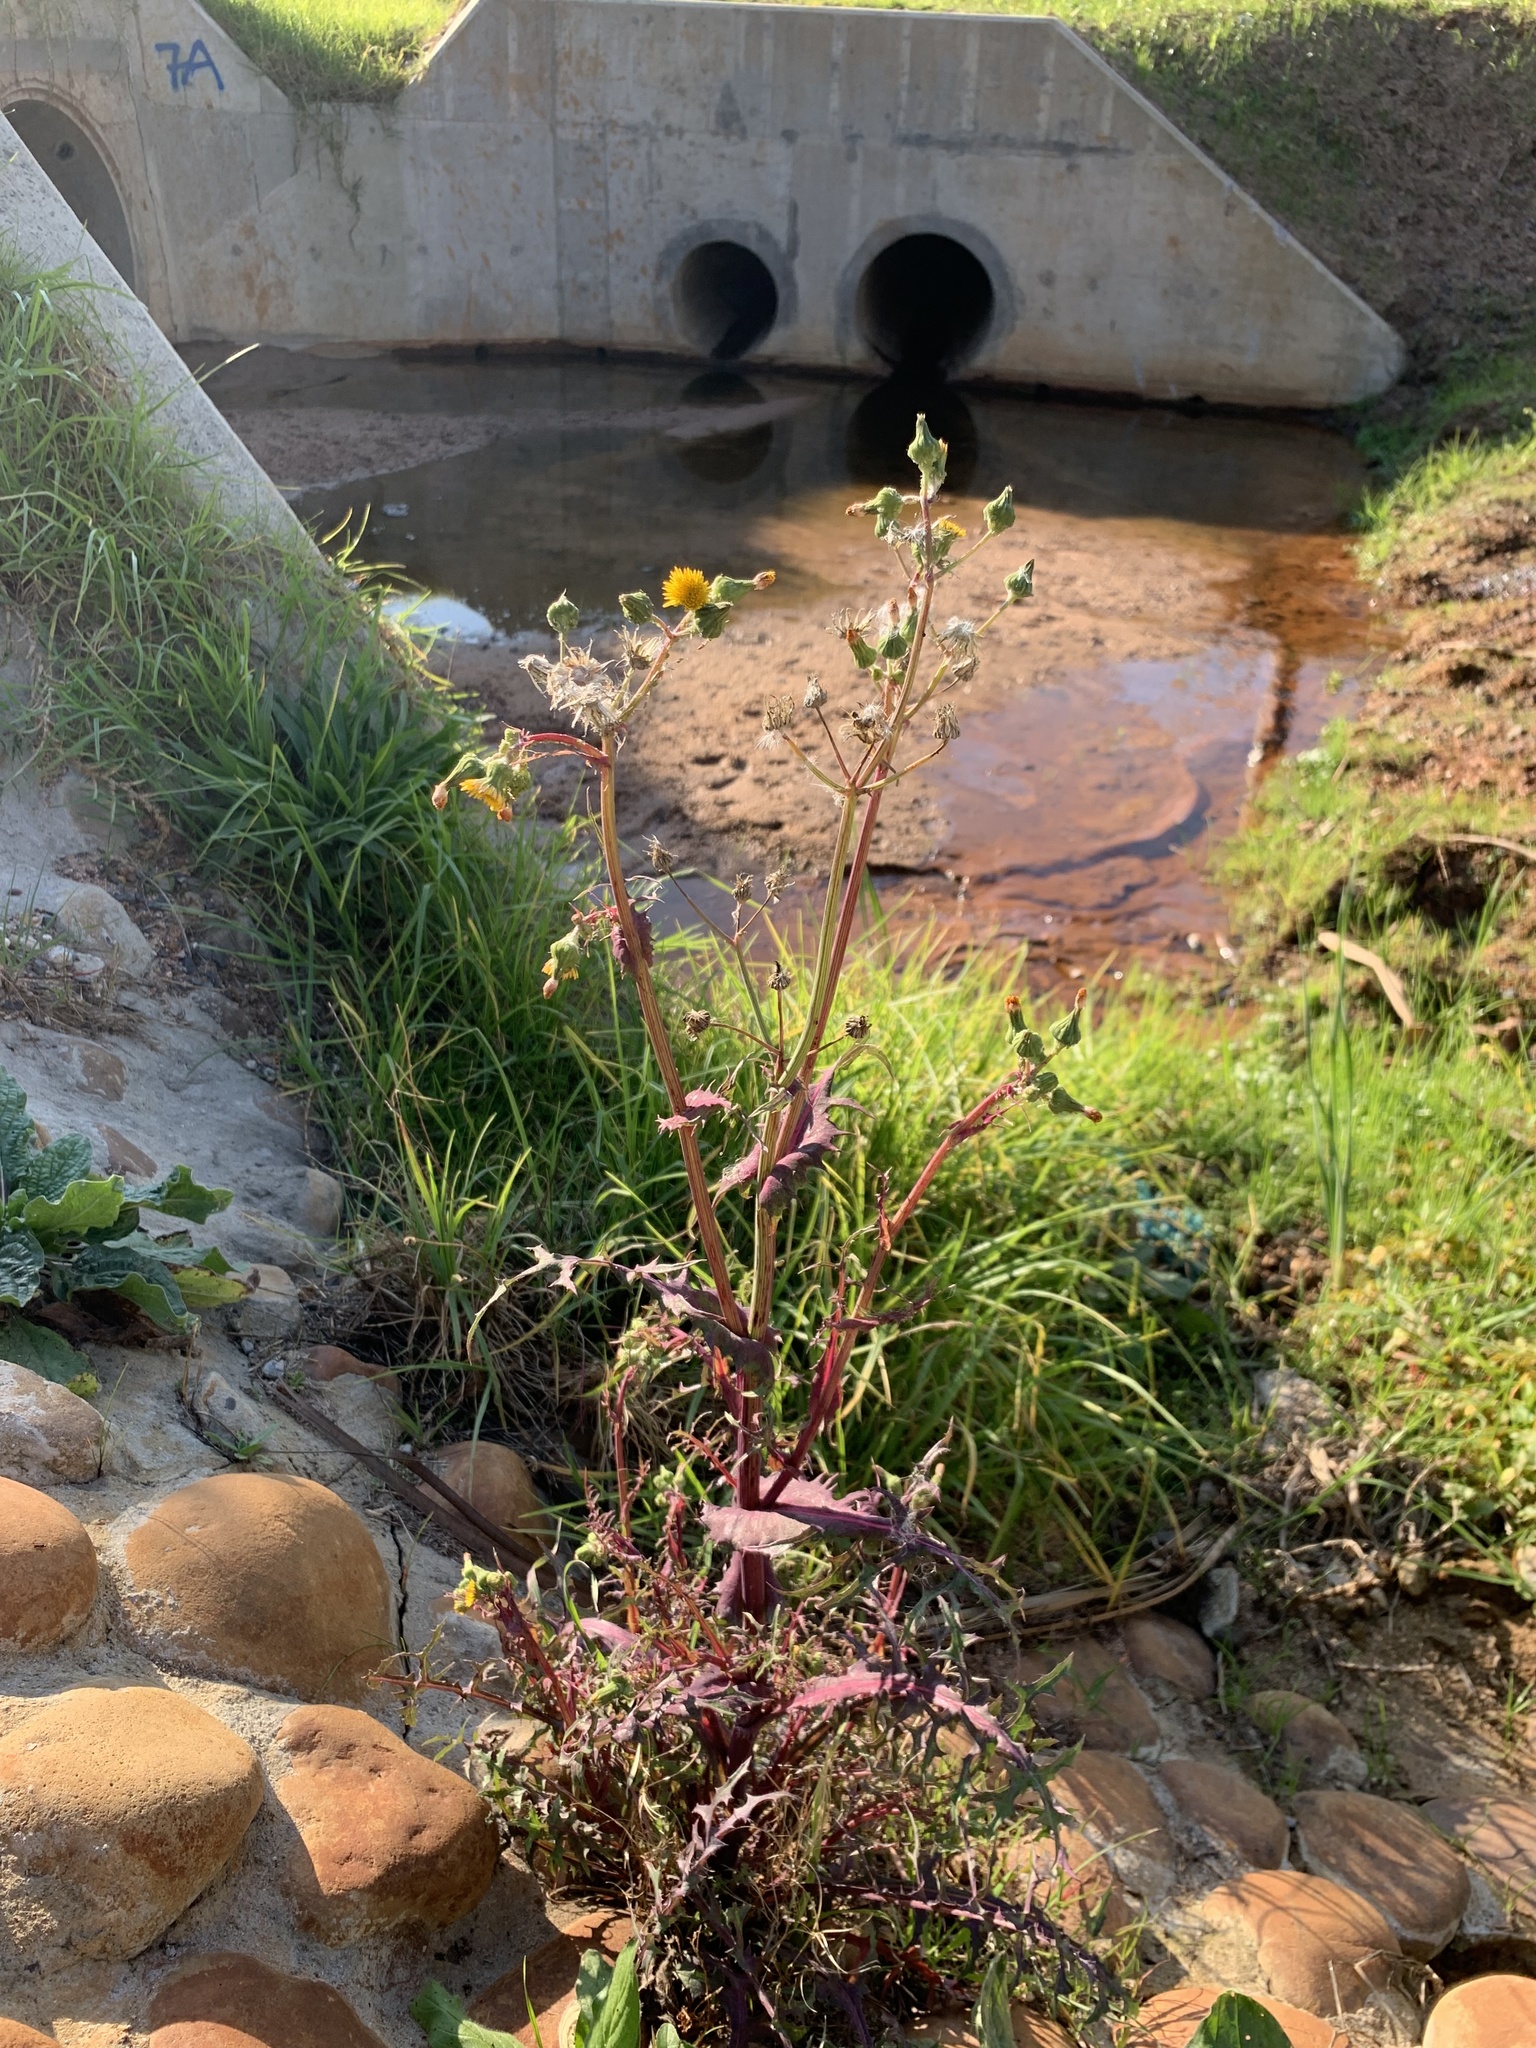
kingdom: Plantae
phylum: Tracheophyta
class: Magnoliopsida
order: Asterales
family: Asteraceae
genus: Sonchus
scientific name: Sonchus oleraceus
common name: Common sowthistle
